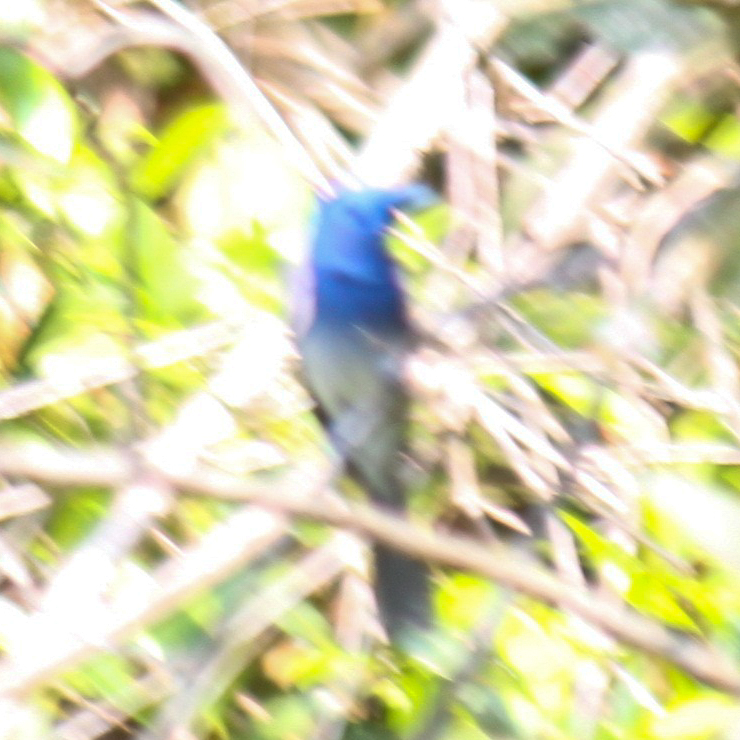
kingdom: Animalia
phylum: Chordata
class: Aves
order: Passeriformes
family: Monarchidae
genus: Hypothymis
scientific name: Hypothymis azurea
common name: Black-naped monarch
